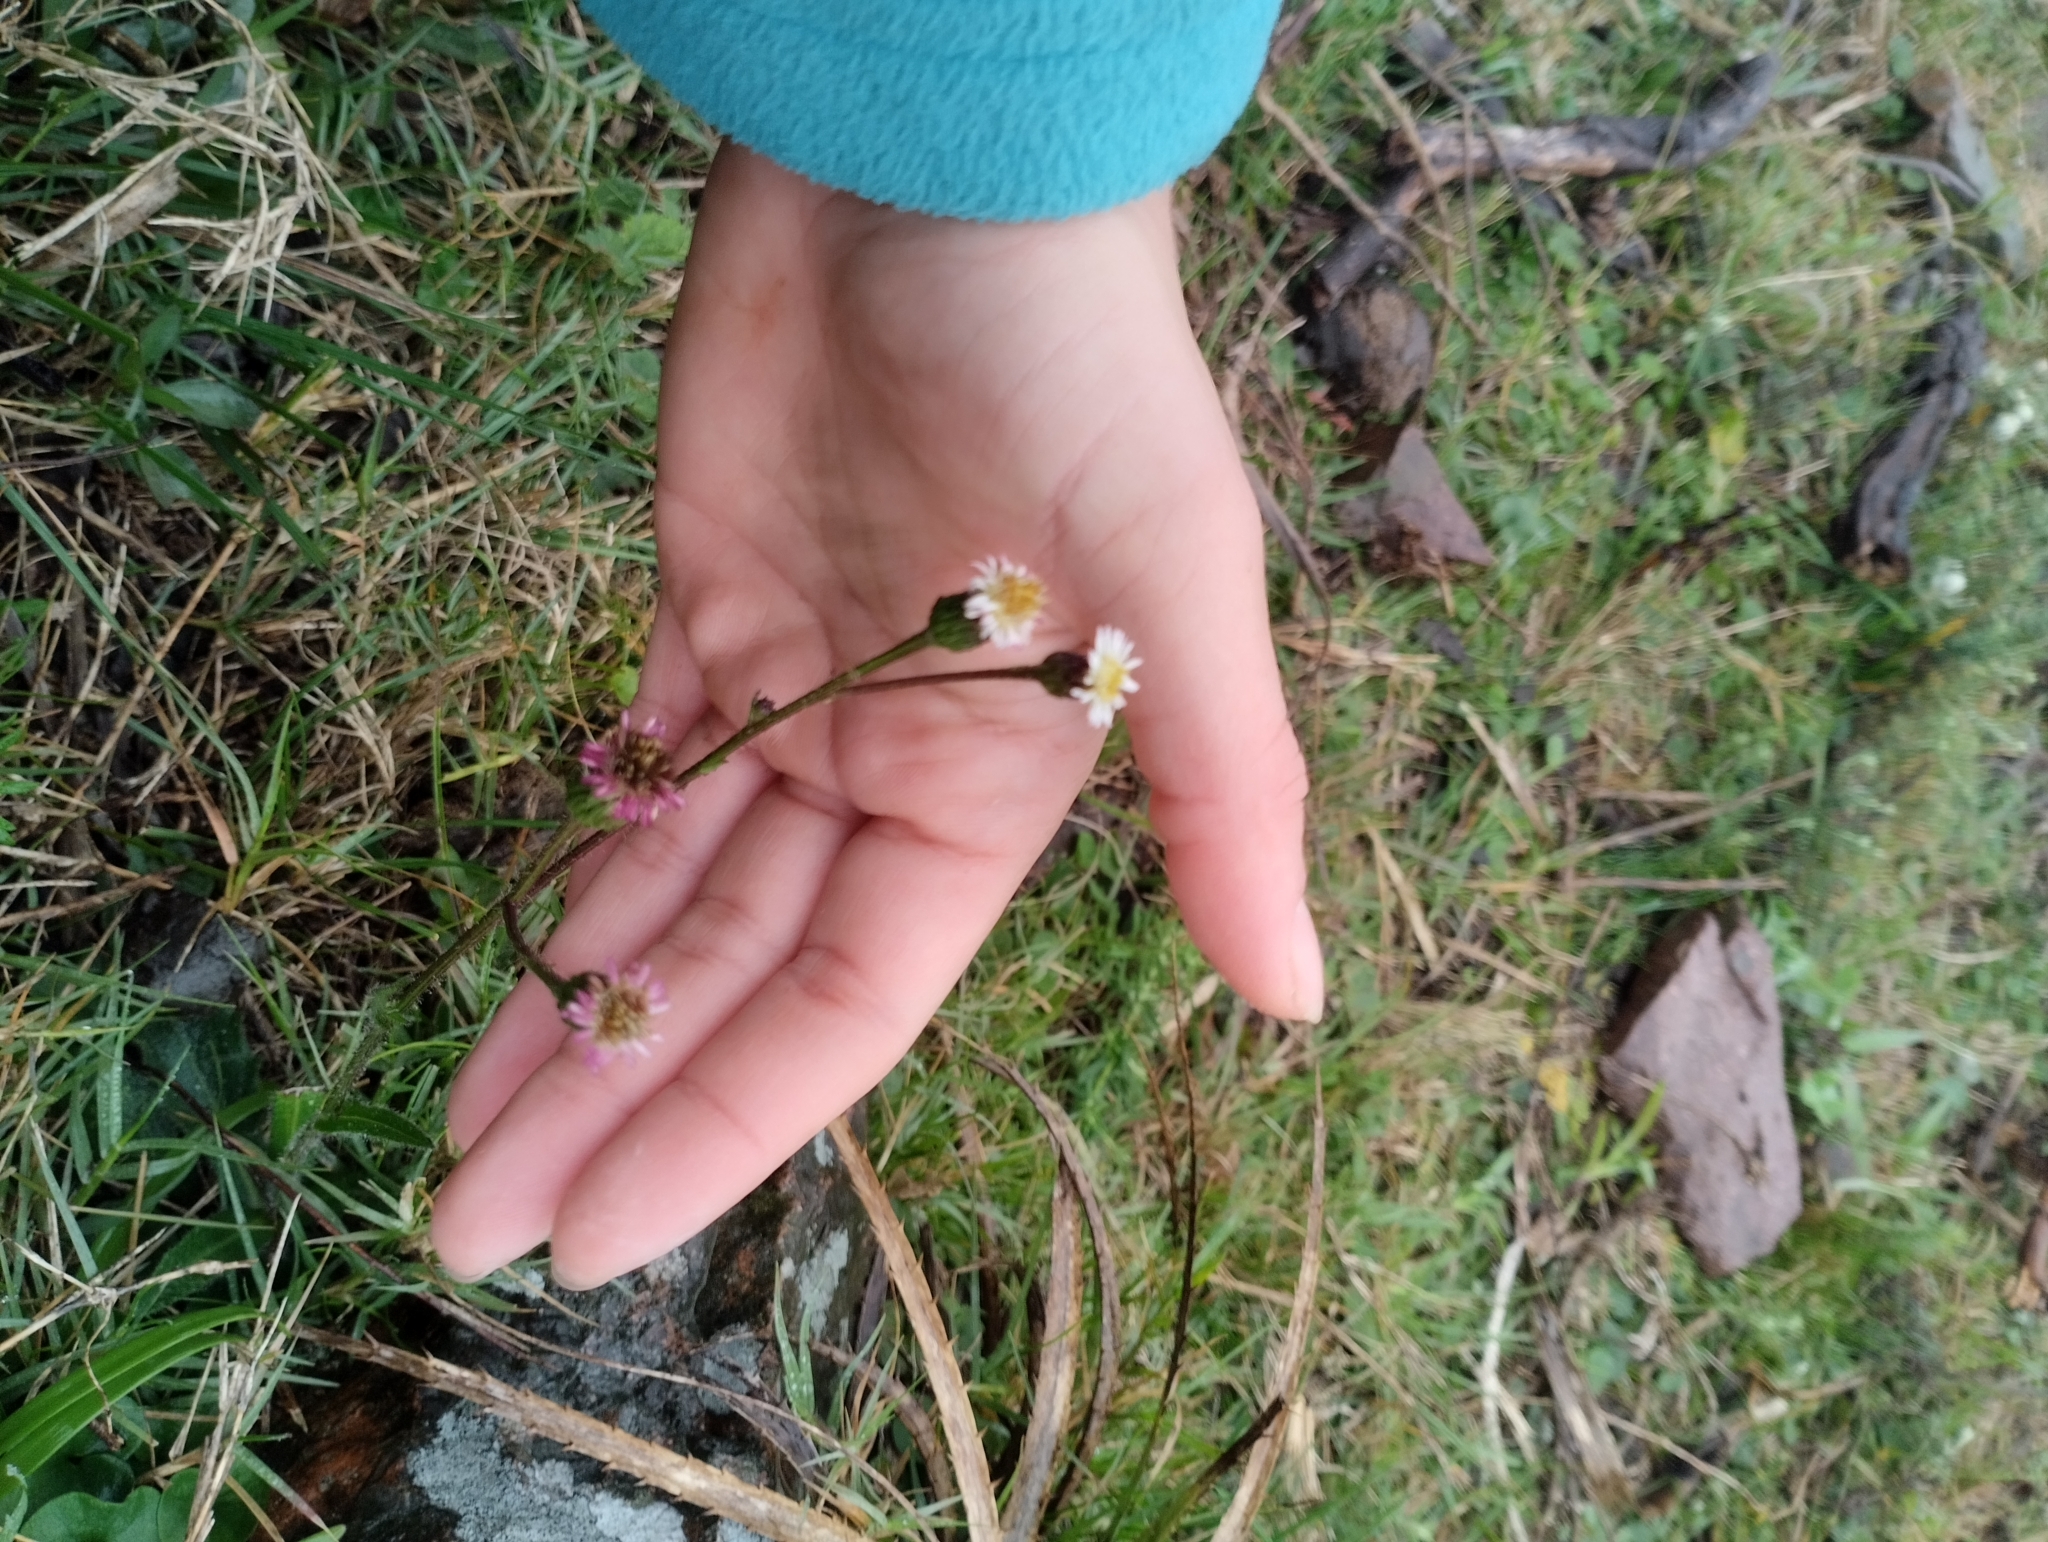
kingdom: Plantae
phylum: Tracheophyta
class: Magnoliopsida
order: Asterales
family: Asteraceae
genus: Podocoma
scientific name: Podocoma hirsuta
